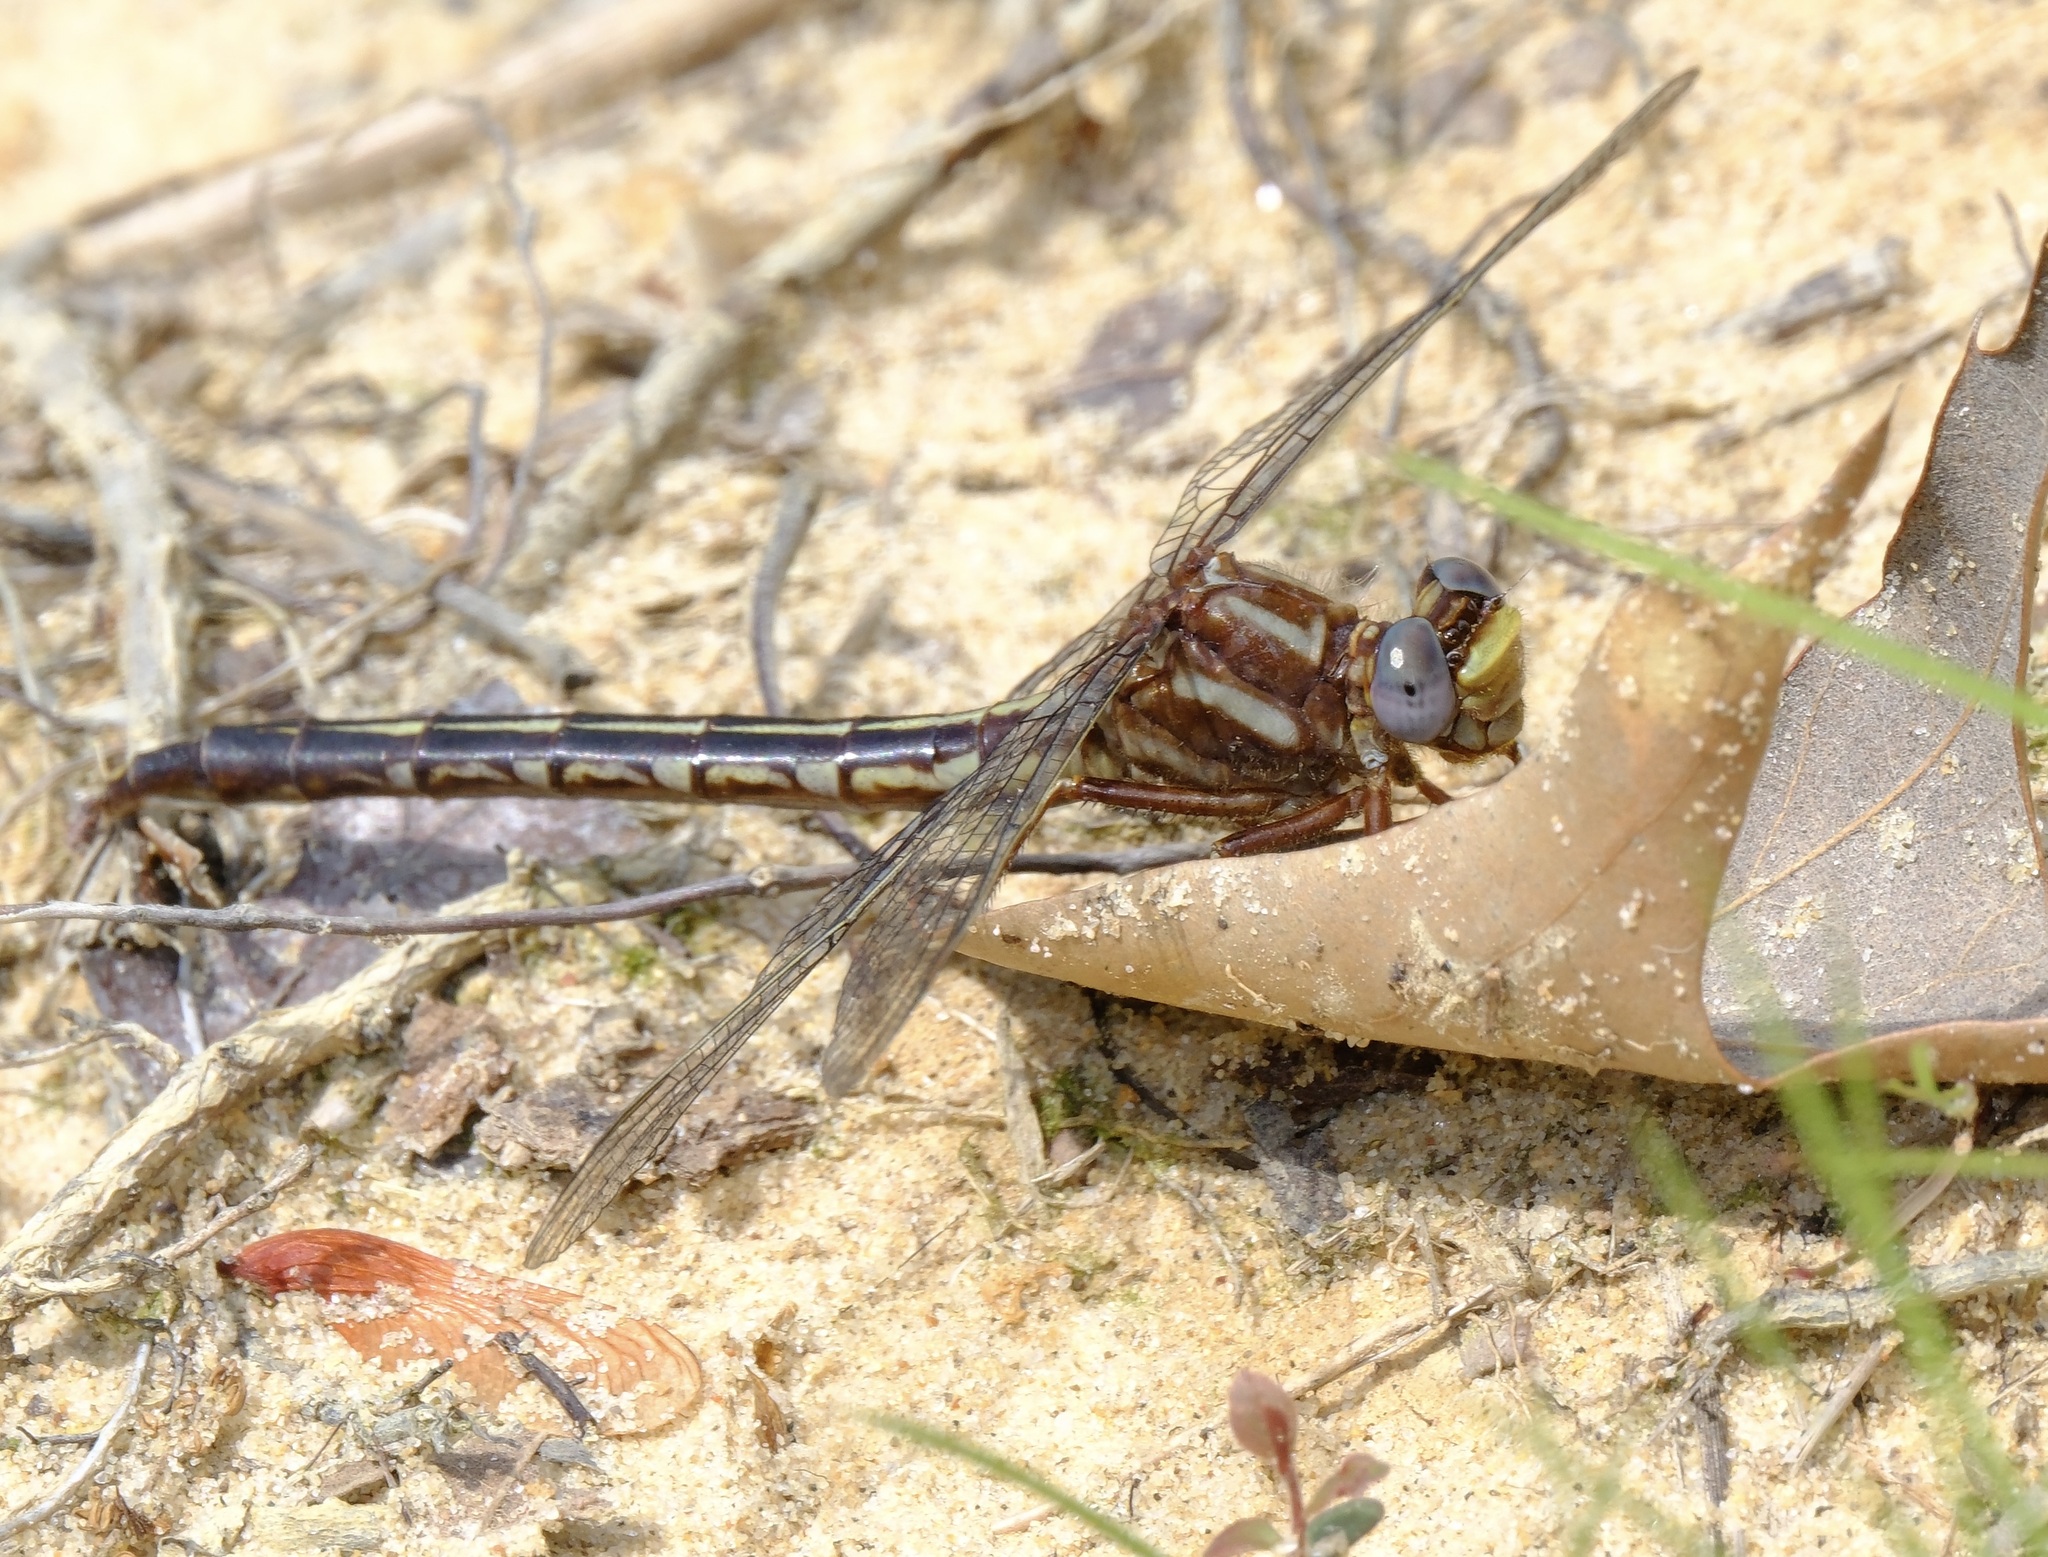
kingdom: Animalia
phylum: Arthropoda
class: Insecta
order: Odonata
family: Gomphidae
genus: Phanogomphus
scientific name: Phanogomphus lividus
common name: Ashy clubtail
